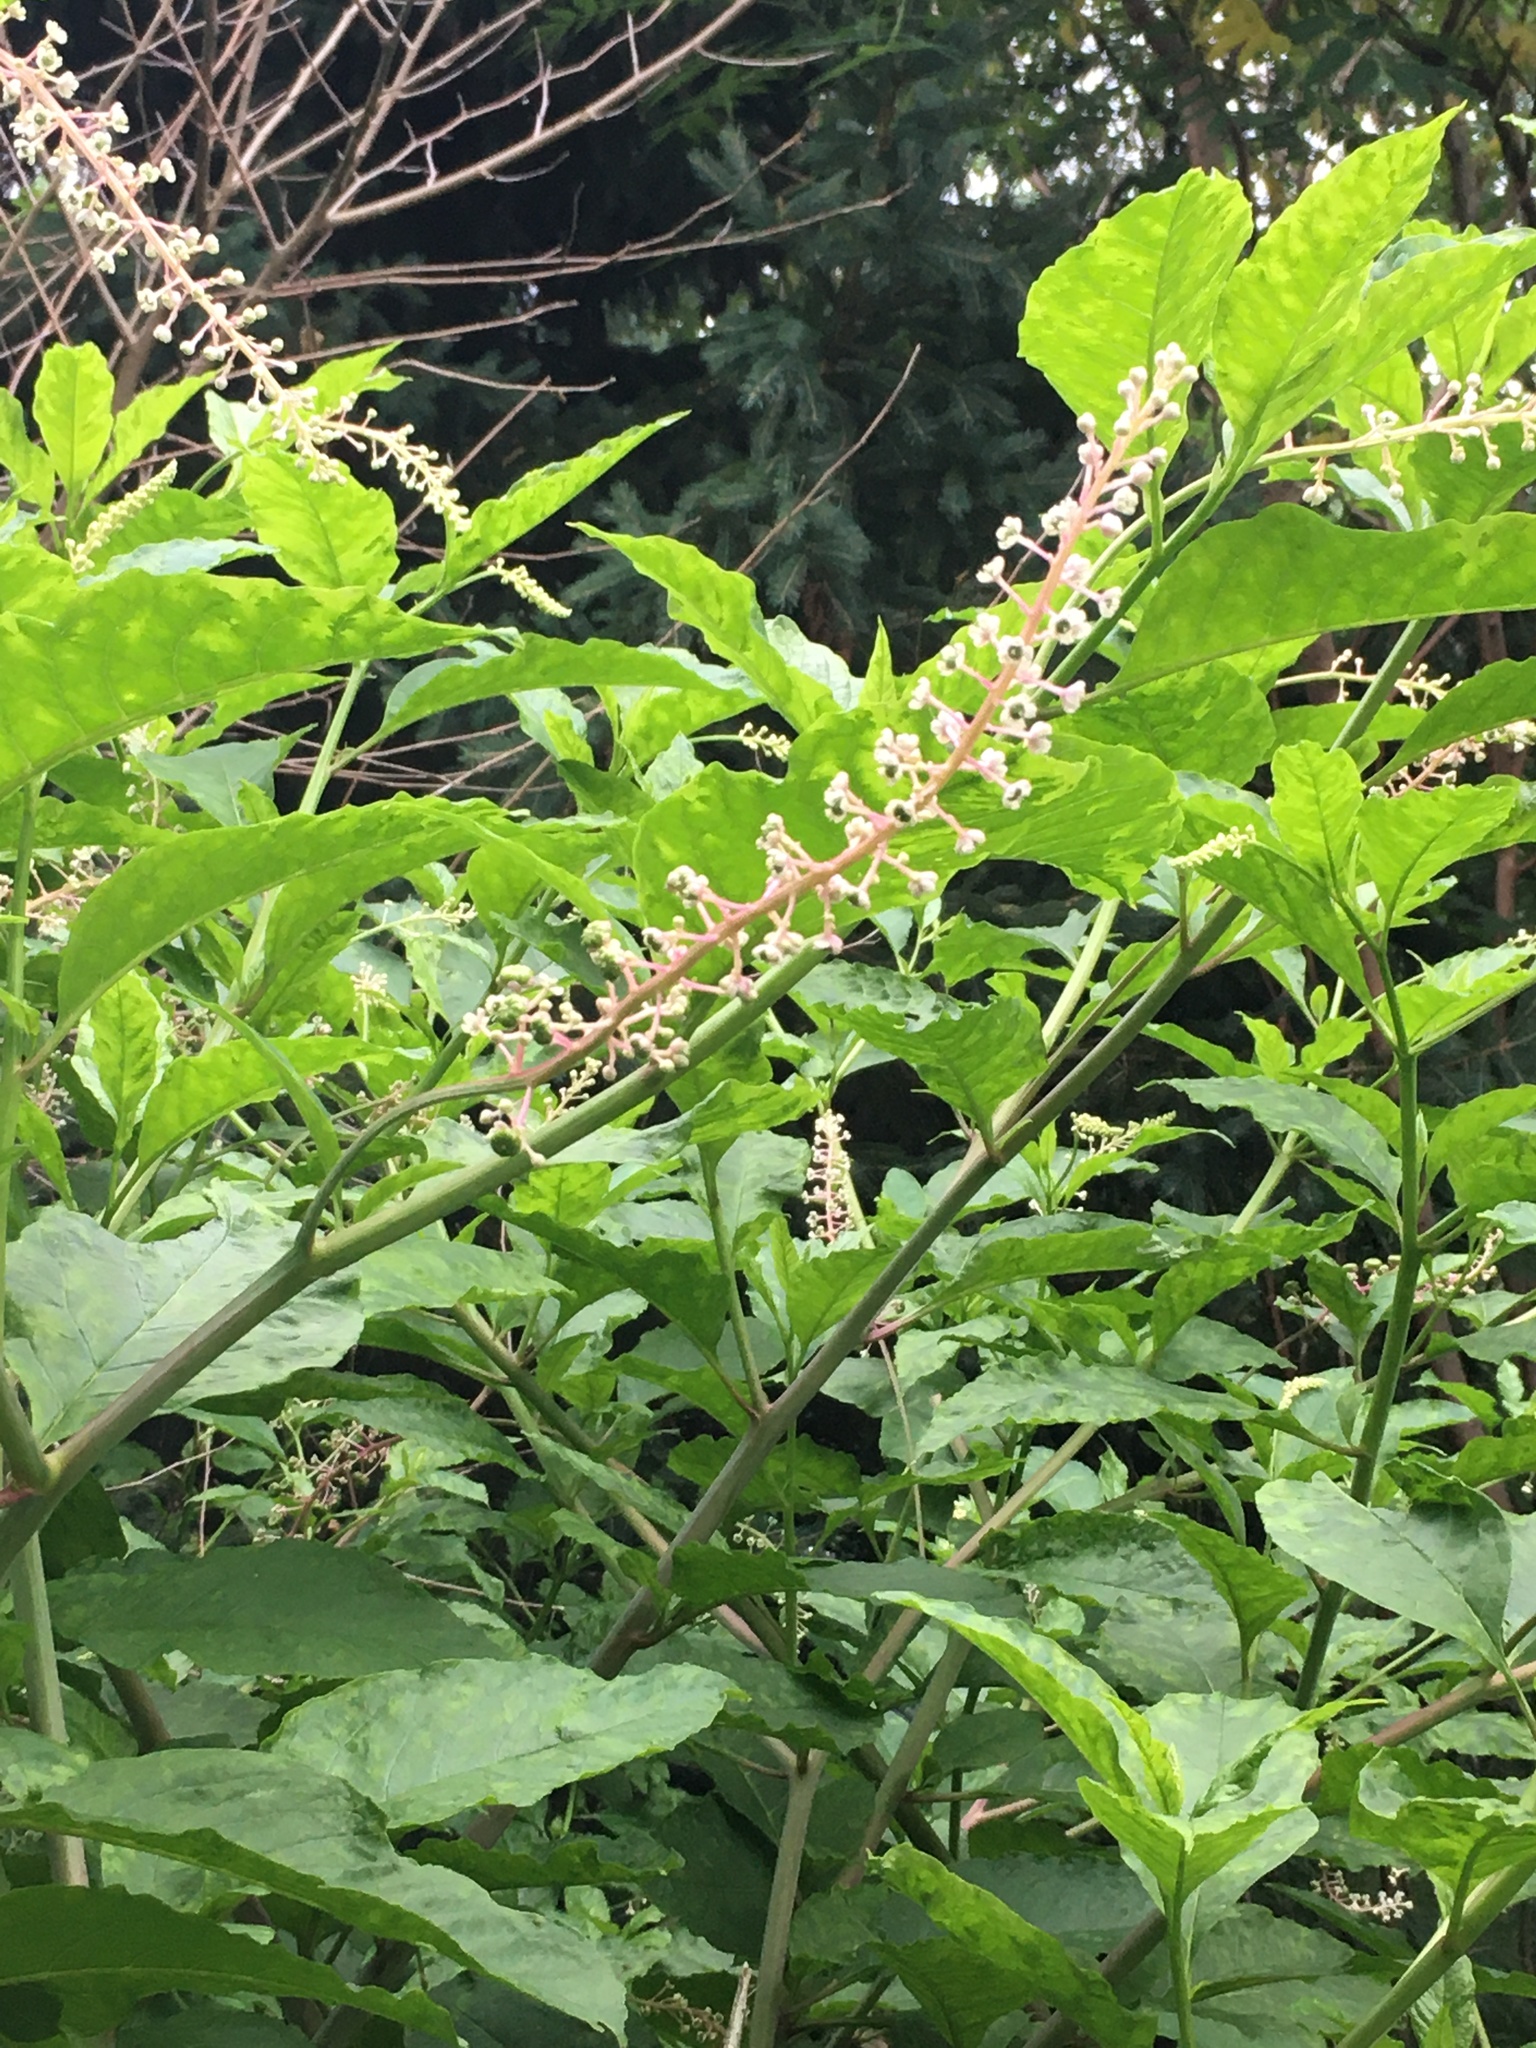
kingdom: Plantae
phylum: Tracheophyta
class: Magnoliopsida
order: Caryophyllales
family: Phytolaccaceae
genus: Phytolacca
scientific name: Phytolacca americana
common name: American pokeweed
